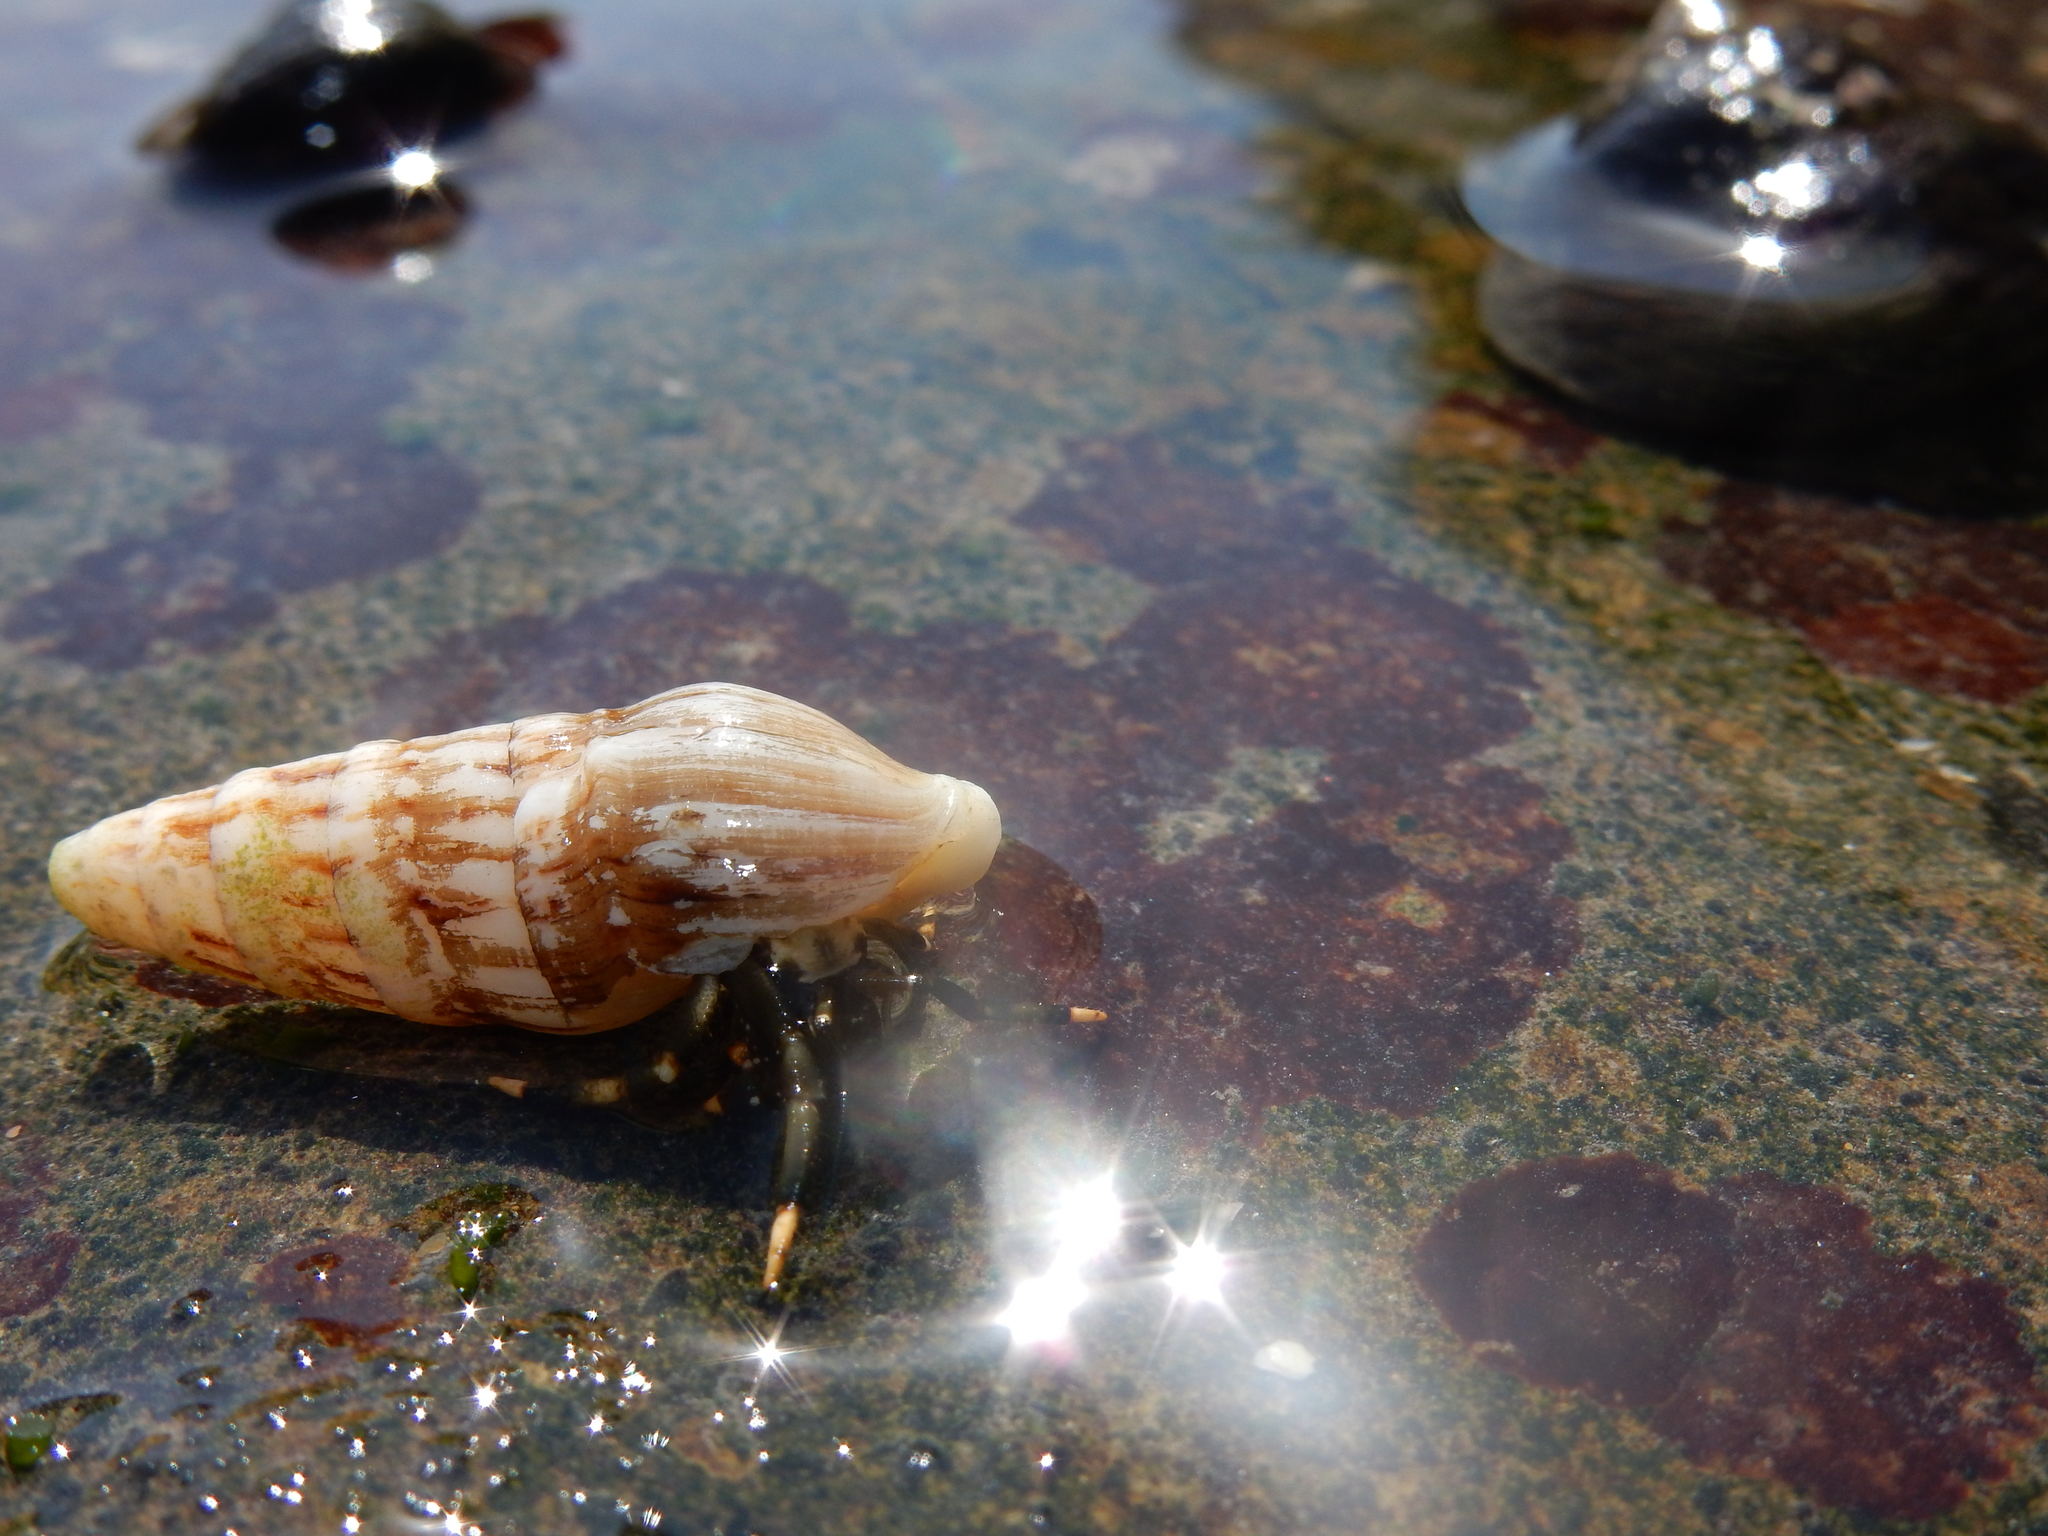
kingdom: Animalia
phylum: Arthropoda
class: Malacostraca
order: Decapoda
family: Diogenidae
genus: Clibanarius
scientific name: Clibanarius virescens
